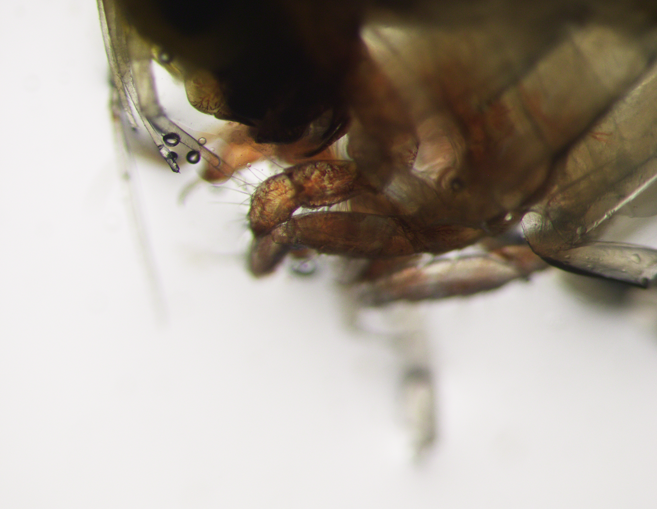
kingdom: Animalia
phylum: Arthropoda
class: Malacostraca
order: Amphipoda
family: Hyperiidae
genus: Themisto
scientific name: Themisto abyssorum
